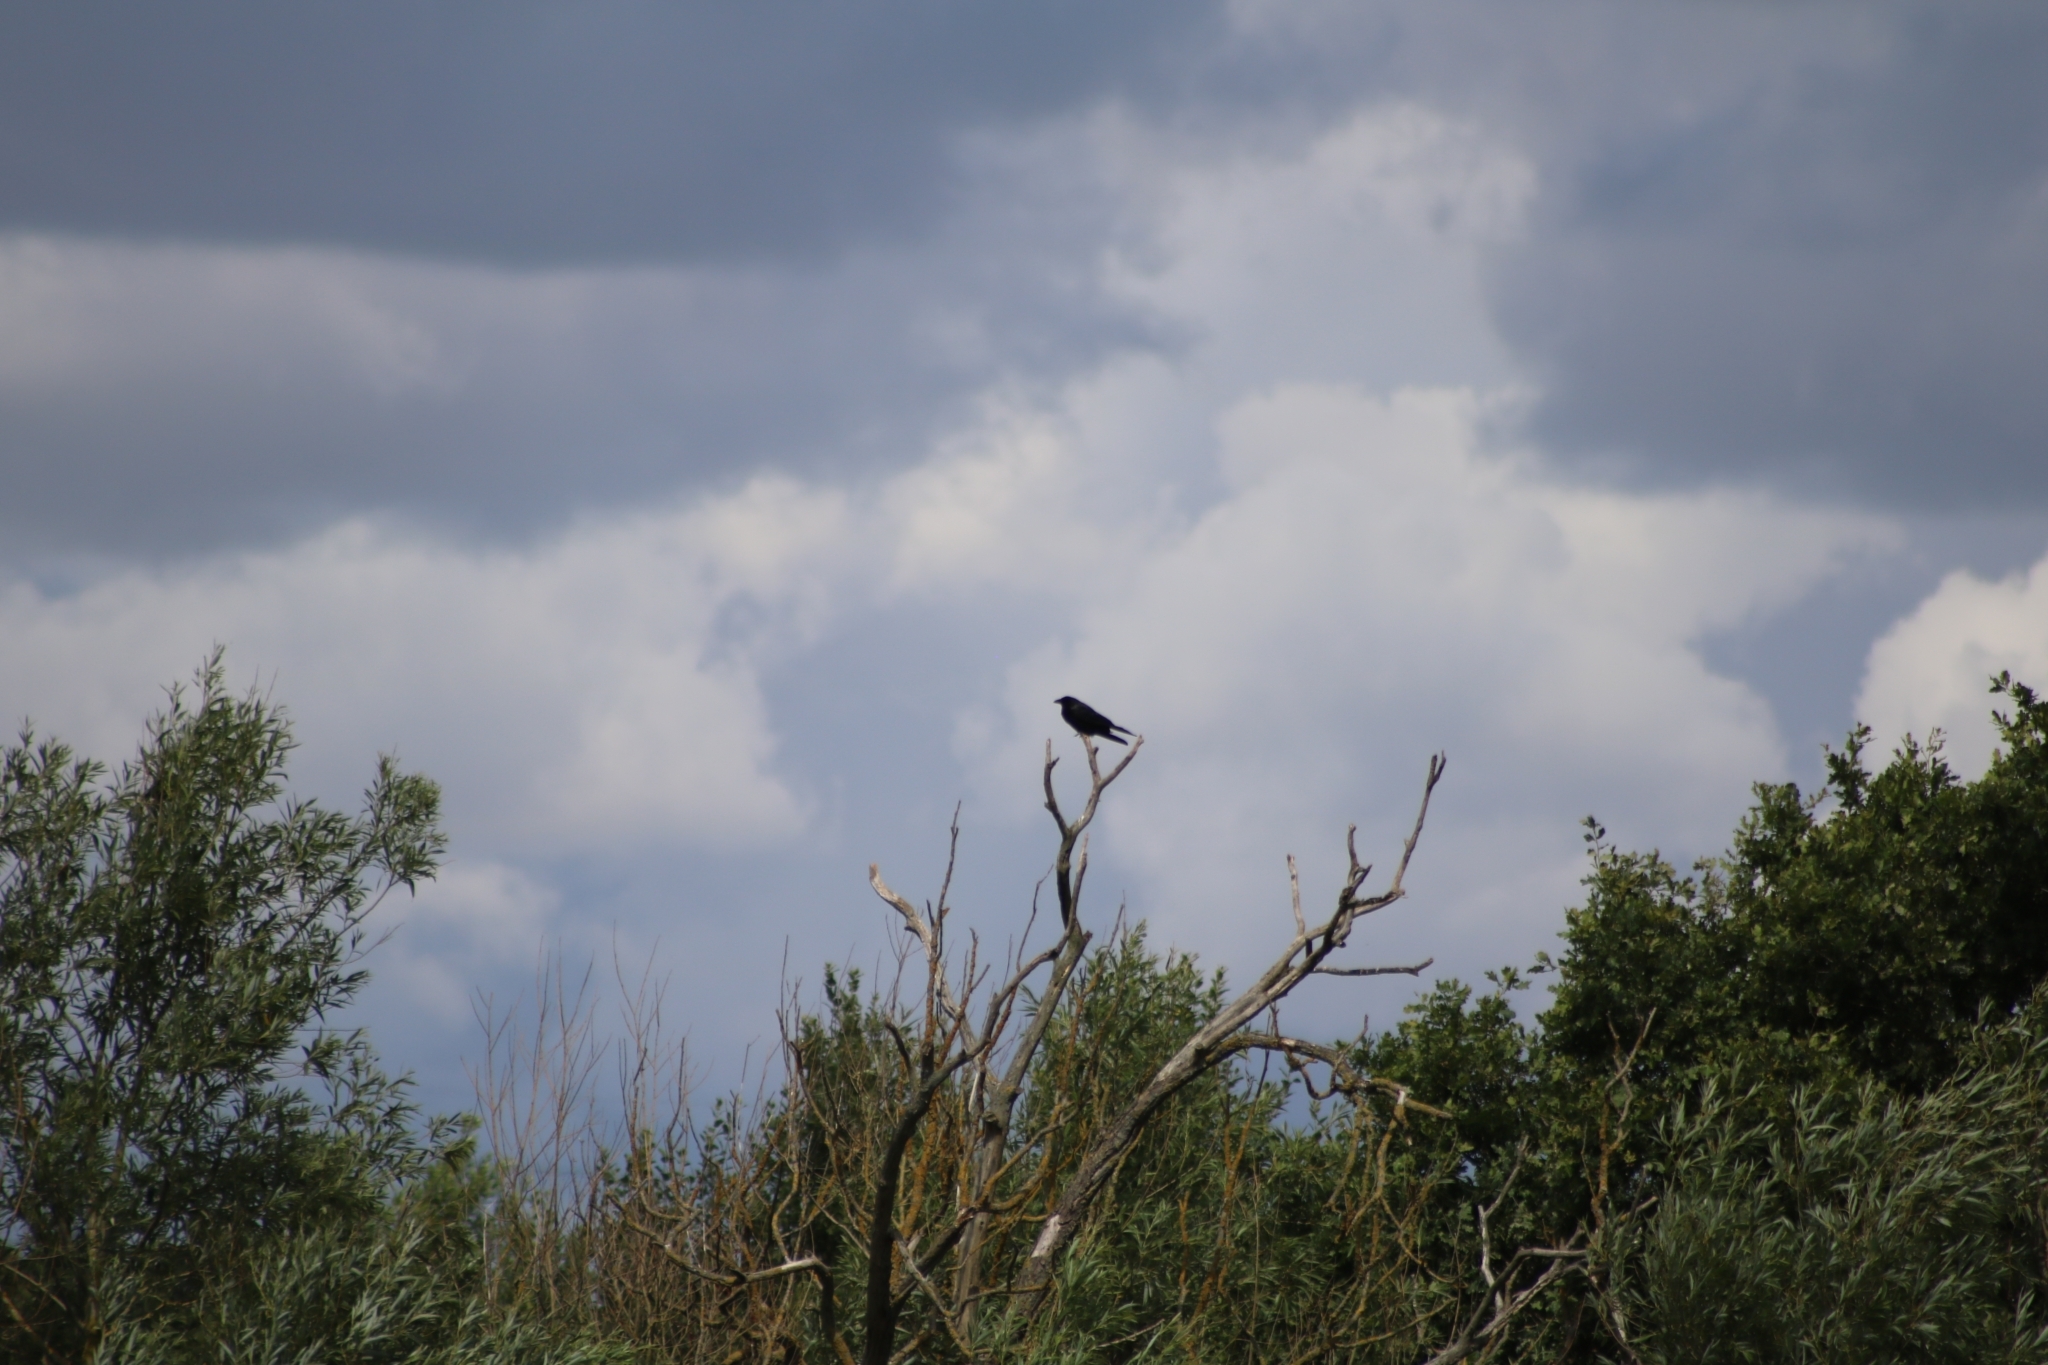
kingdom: Animalia
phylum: Chordata
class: Aves
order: Passeriformes
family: Corvidae
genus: Corvus
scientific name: Corvus corone
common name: Carrion crow
